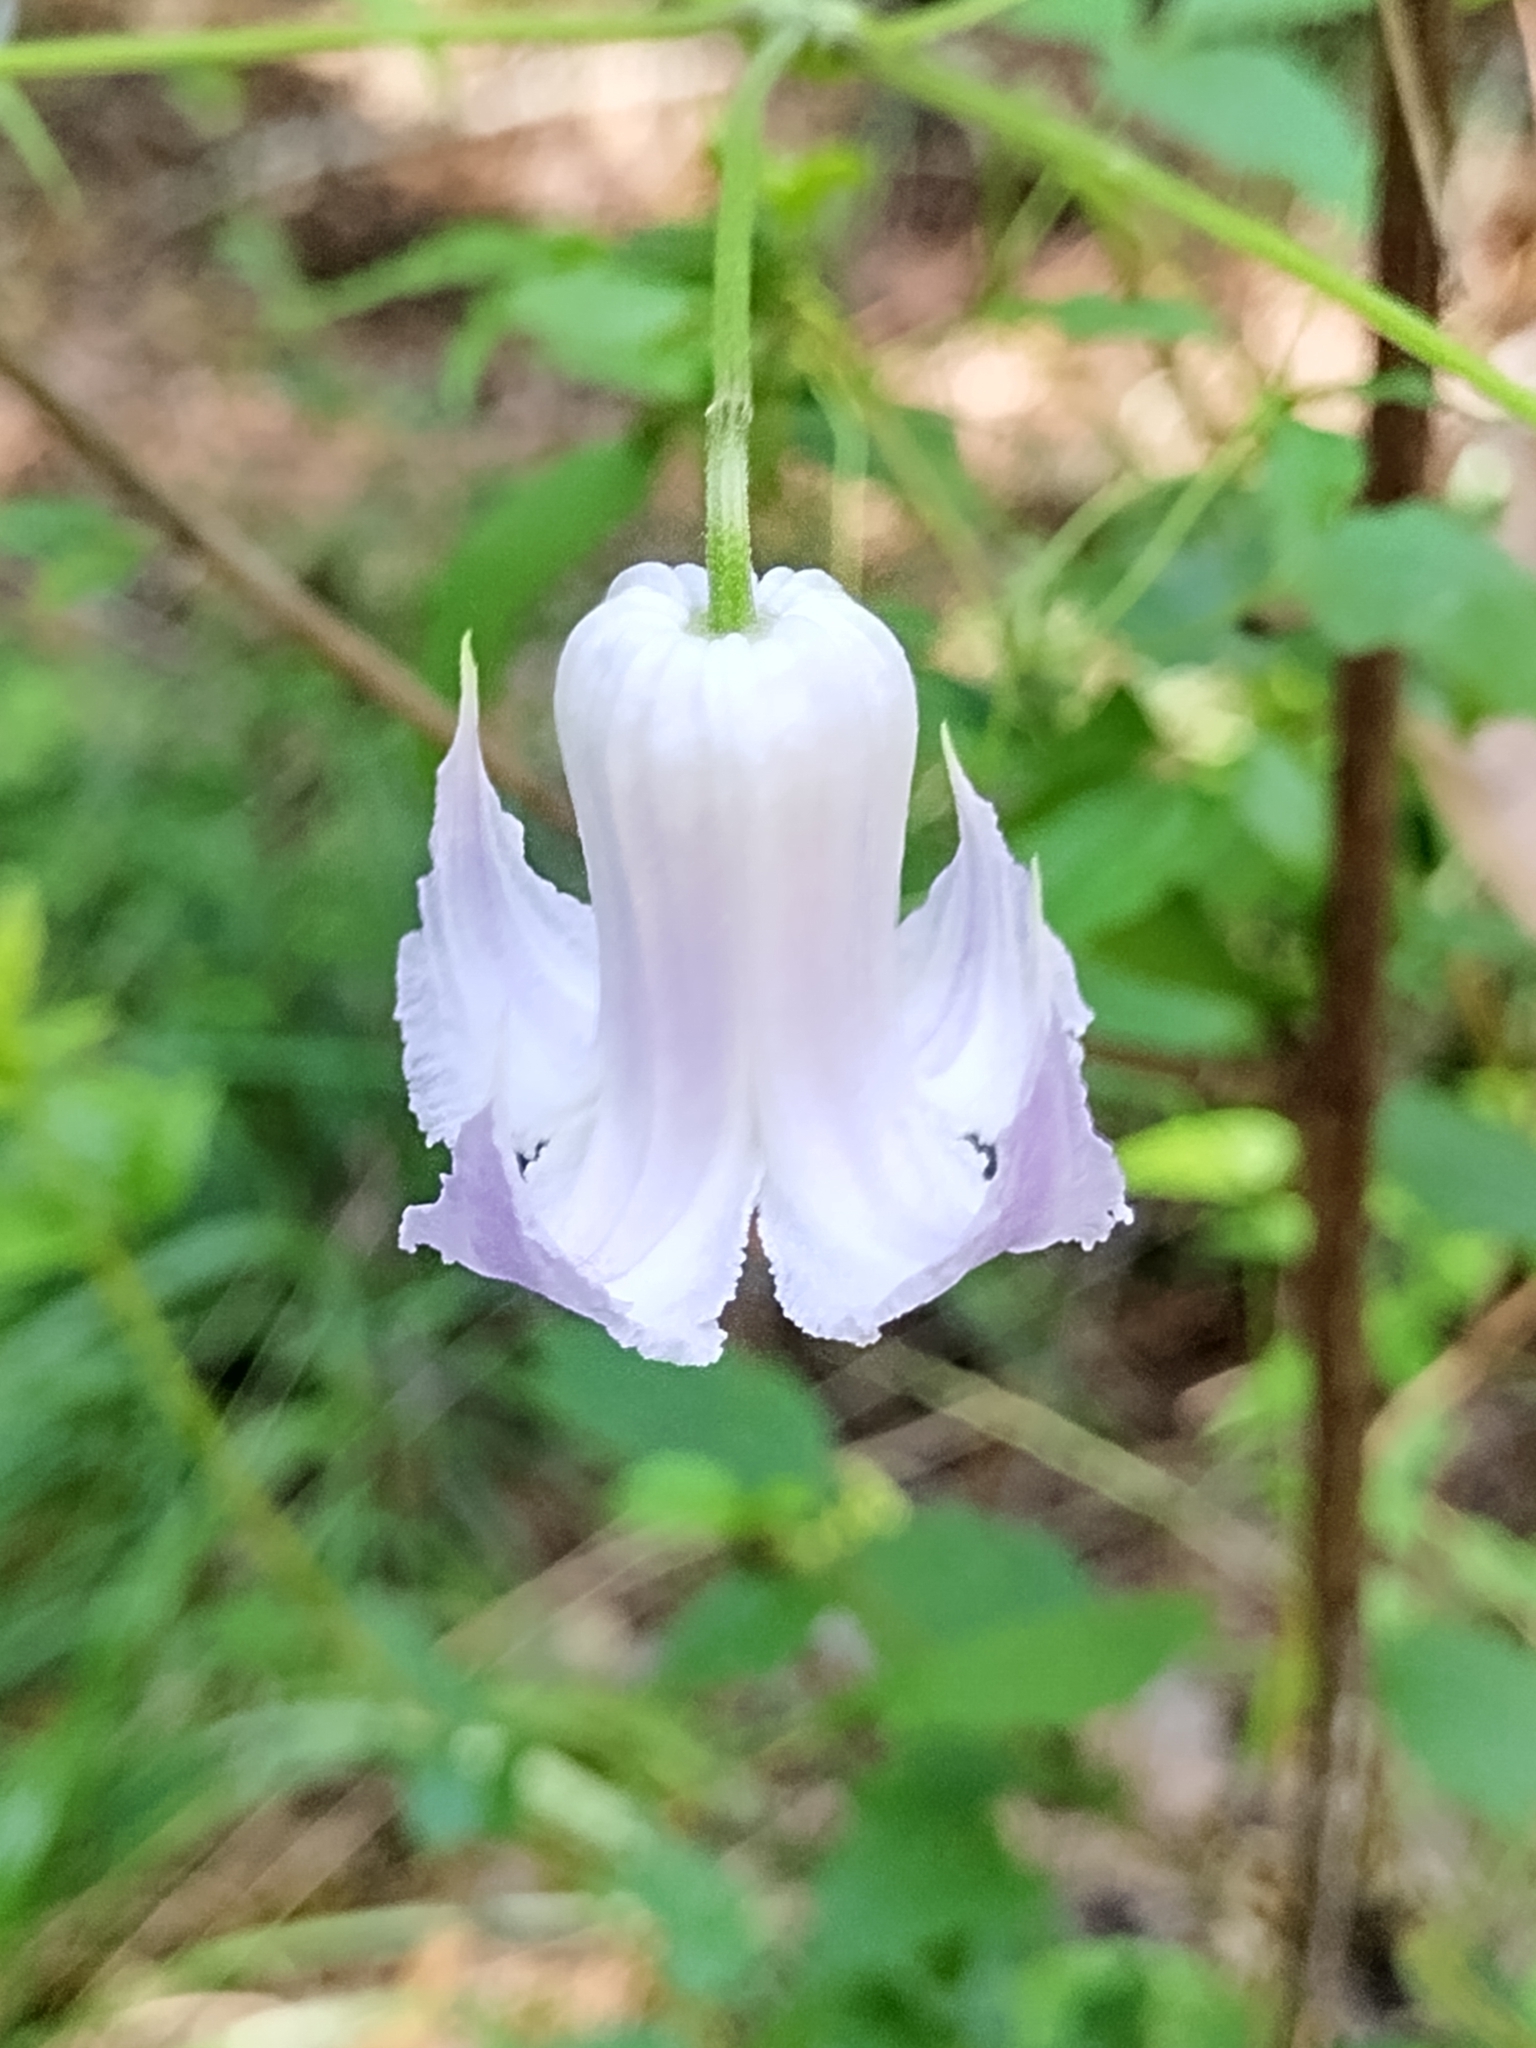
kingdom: Plantae
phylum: Tracheophyta
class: Magnoliopsida
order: Ranunculales
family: Ranunculaceae
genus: Clematis
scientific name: Clematis crispa
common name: Curly clematis
